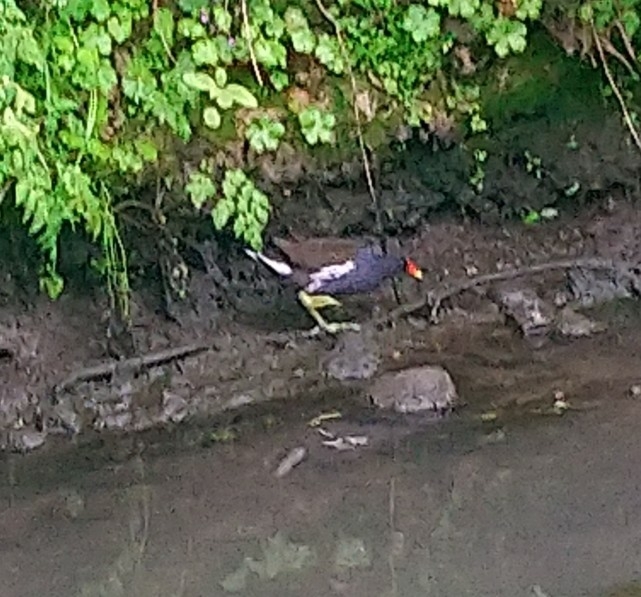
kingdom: Animalia
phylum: Chordata
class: Aves
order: Gruiformes
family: Rallidae
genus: Gallinula
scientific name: Gallinula chloropus
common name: Common moorhen
